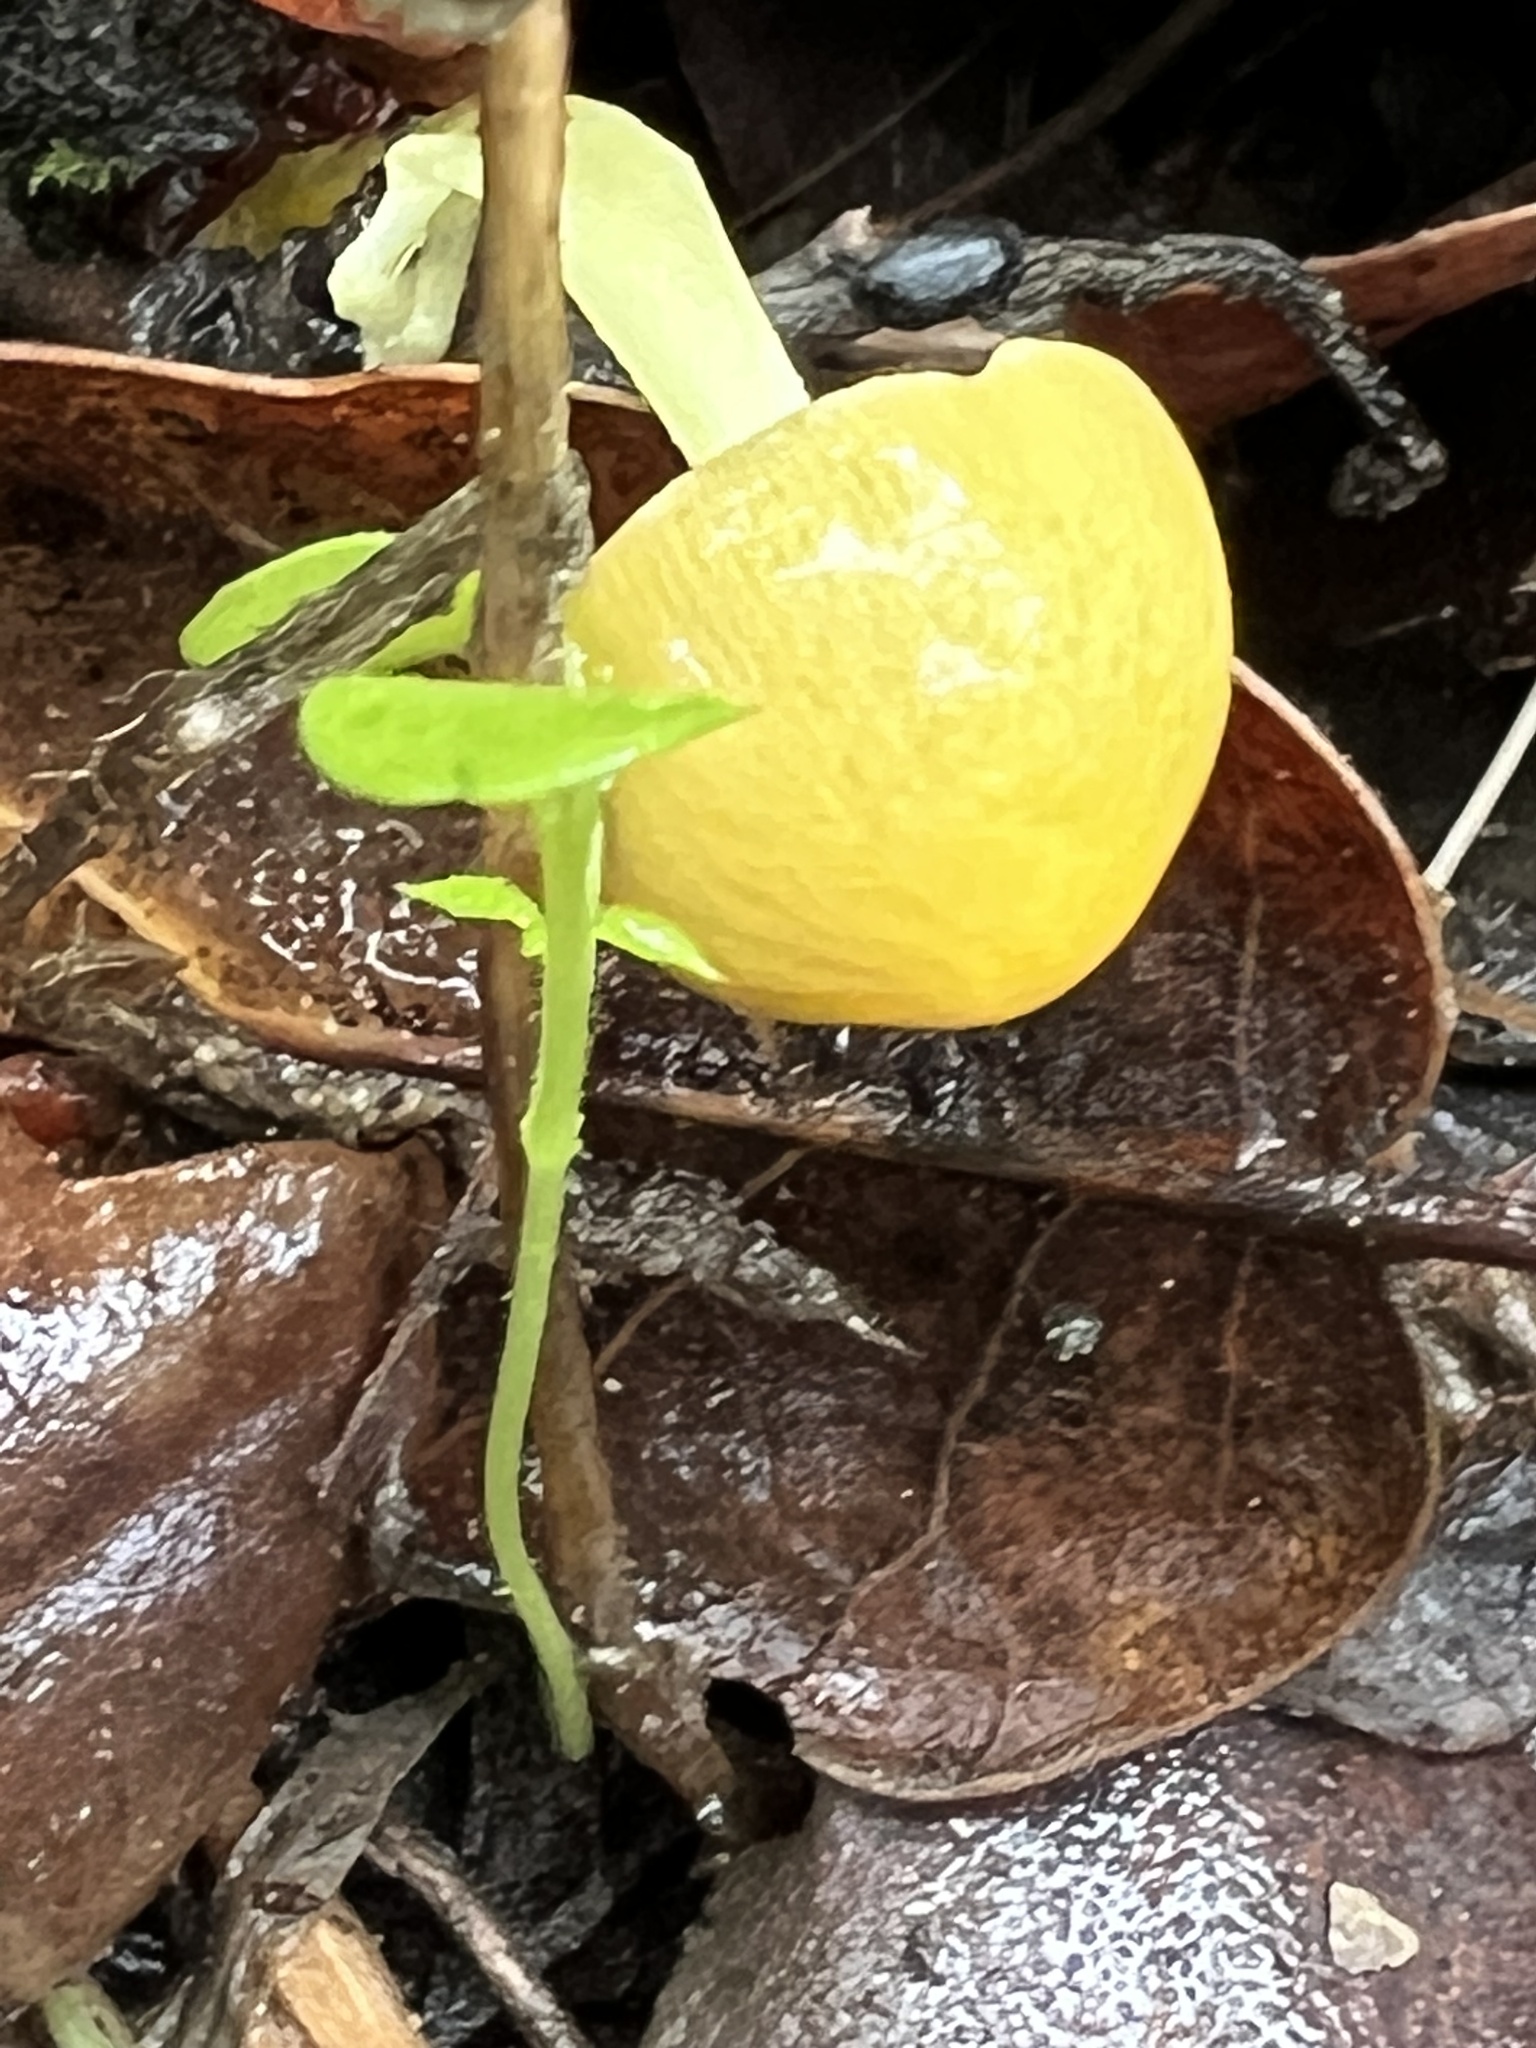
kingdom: Fungi
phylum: Basidiomycota
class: Agaricomycetes
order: Agaricales
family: Bolbitiaceae
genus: Bolbitius
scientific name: Bolbitius titubans
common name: Yellow fieldcap
